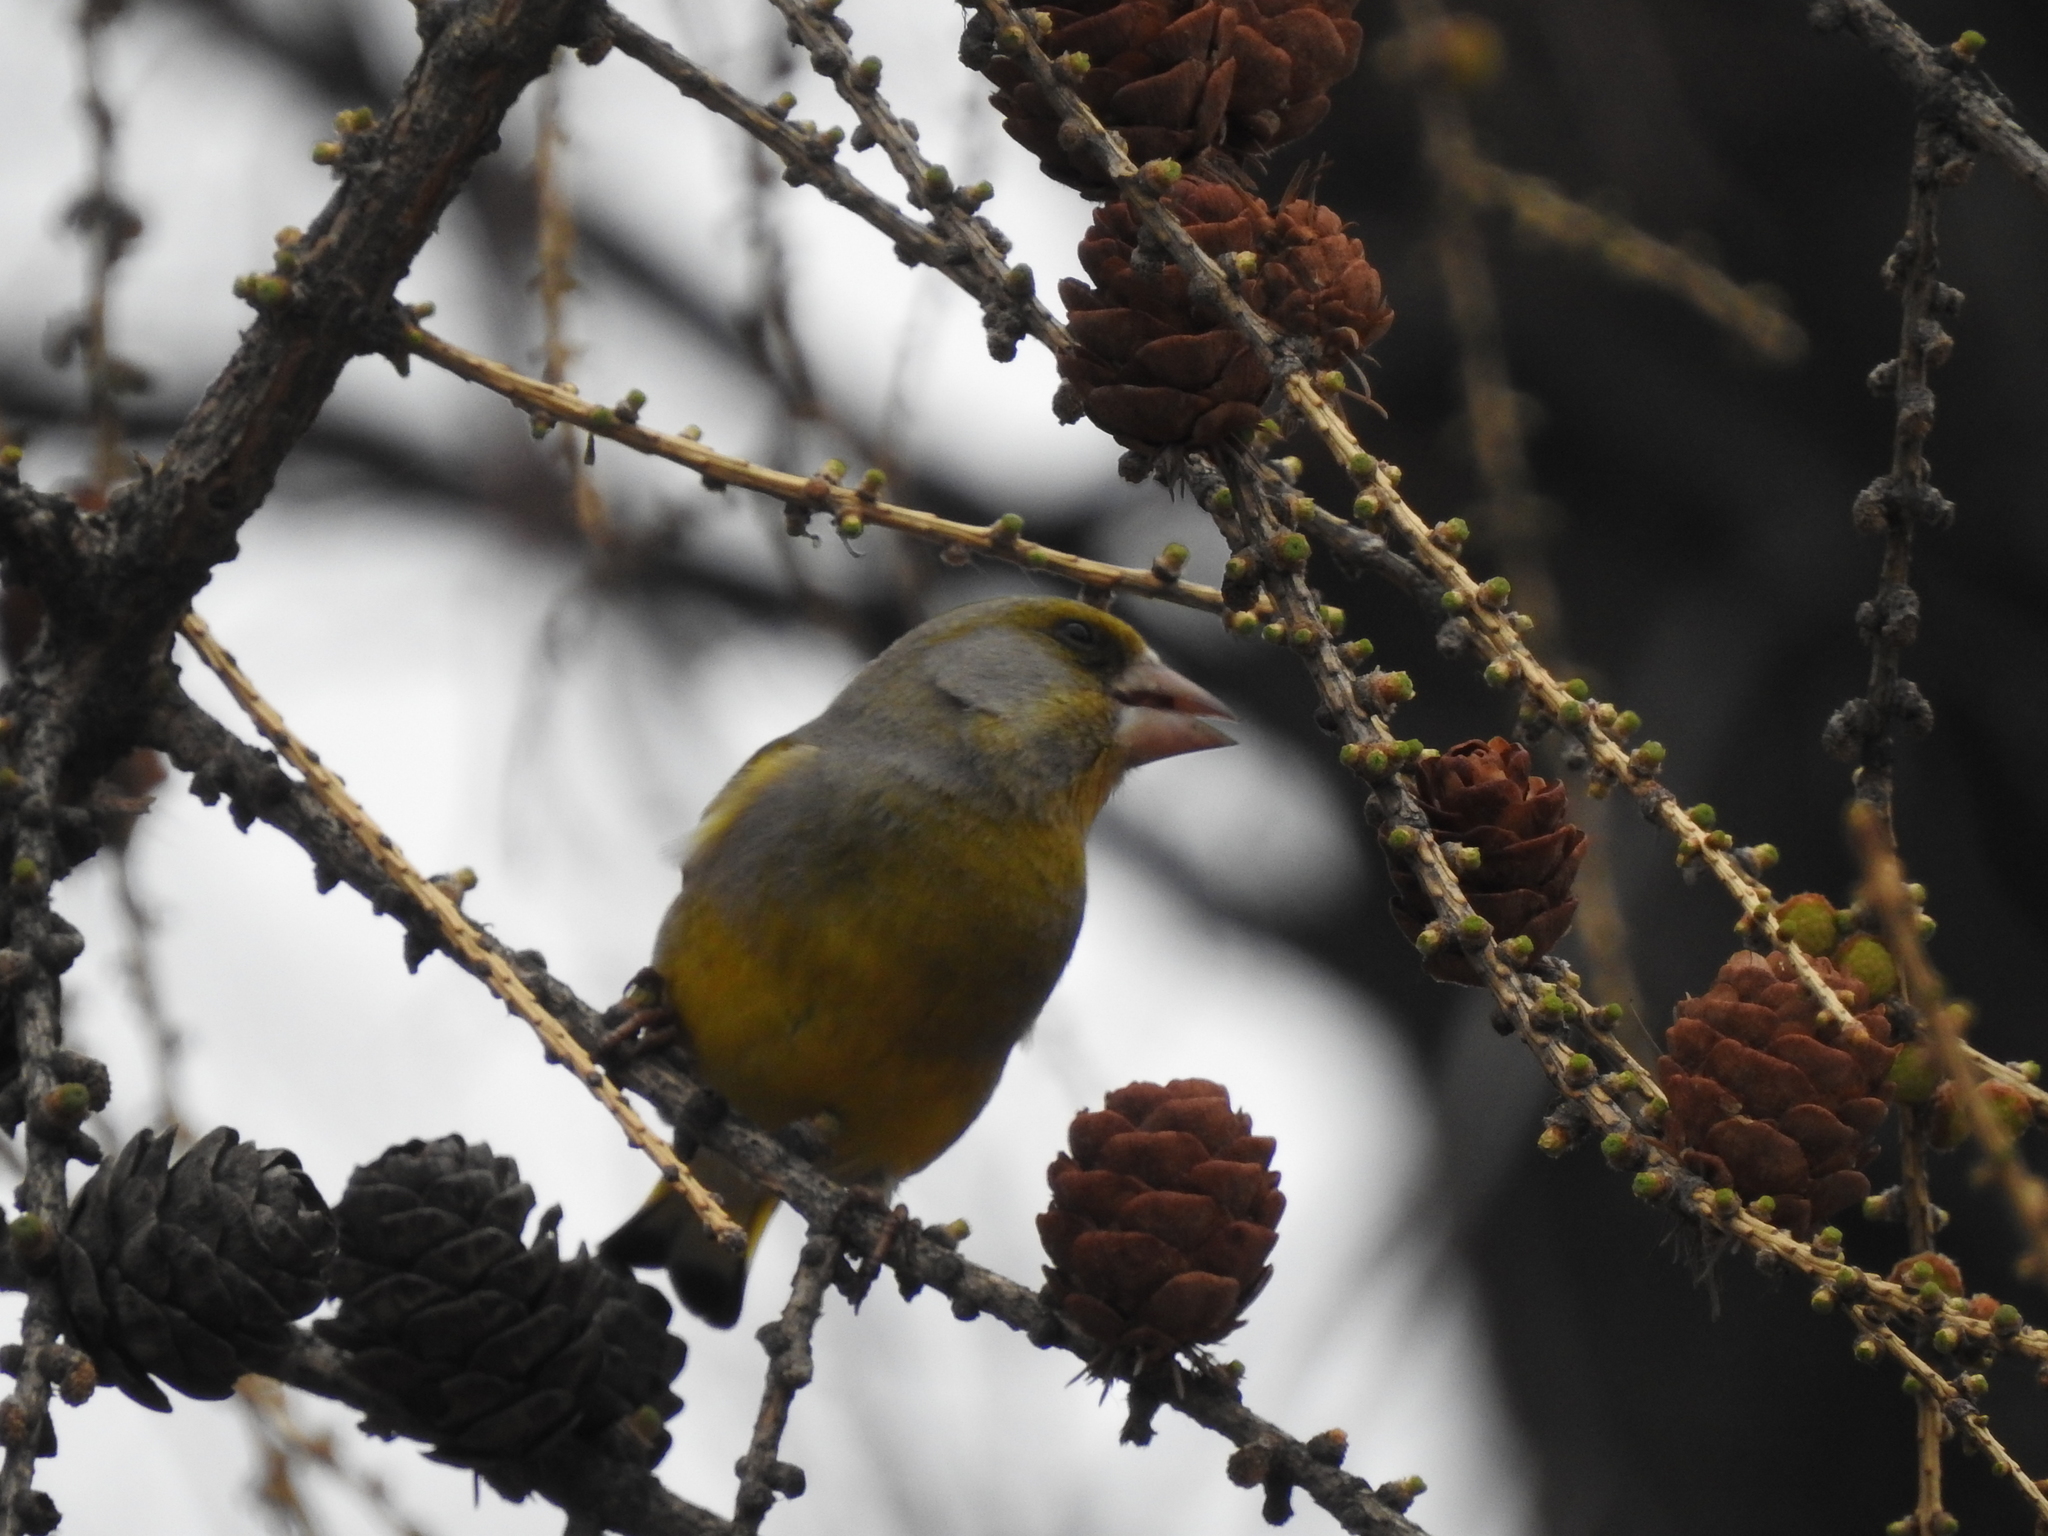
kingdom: Plantae
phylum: Tracheophyta
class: Liliopsida
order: Poales
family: Poaceae
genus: Chloris
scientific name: Chloris chloris
